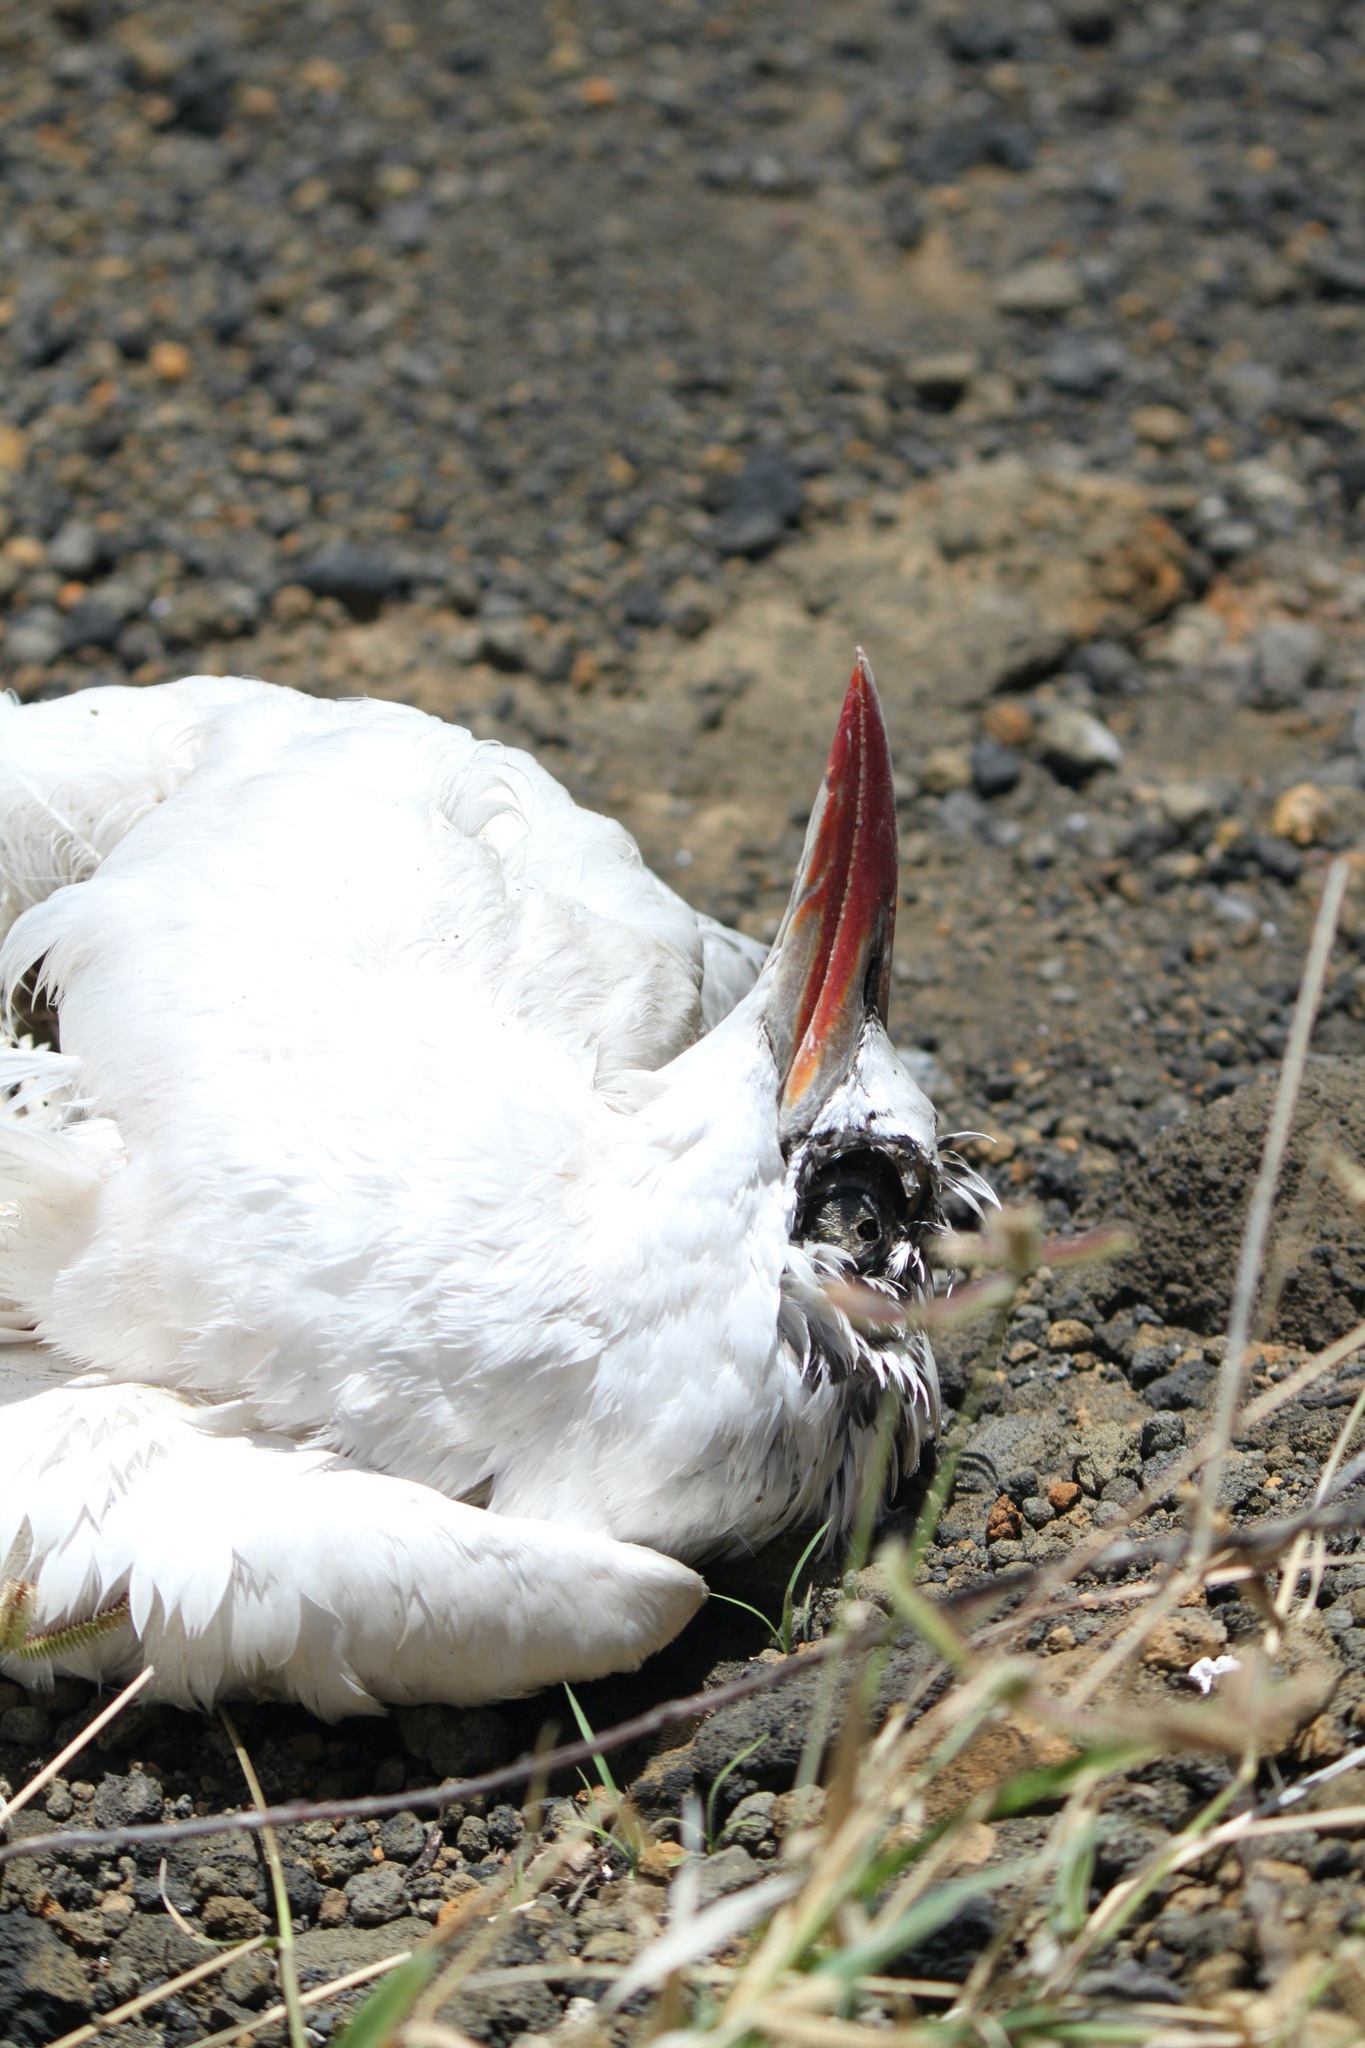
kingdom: Animalia
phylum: Chordata
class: Aves
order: Phaethontiformes
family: Phaethontidae
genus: Phaethon
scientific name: Phaethon rubricauda
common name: Red-tailed tropicbird
